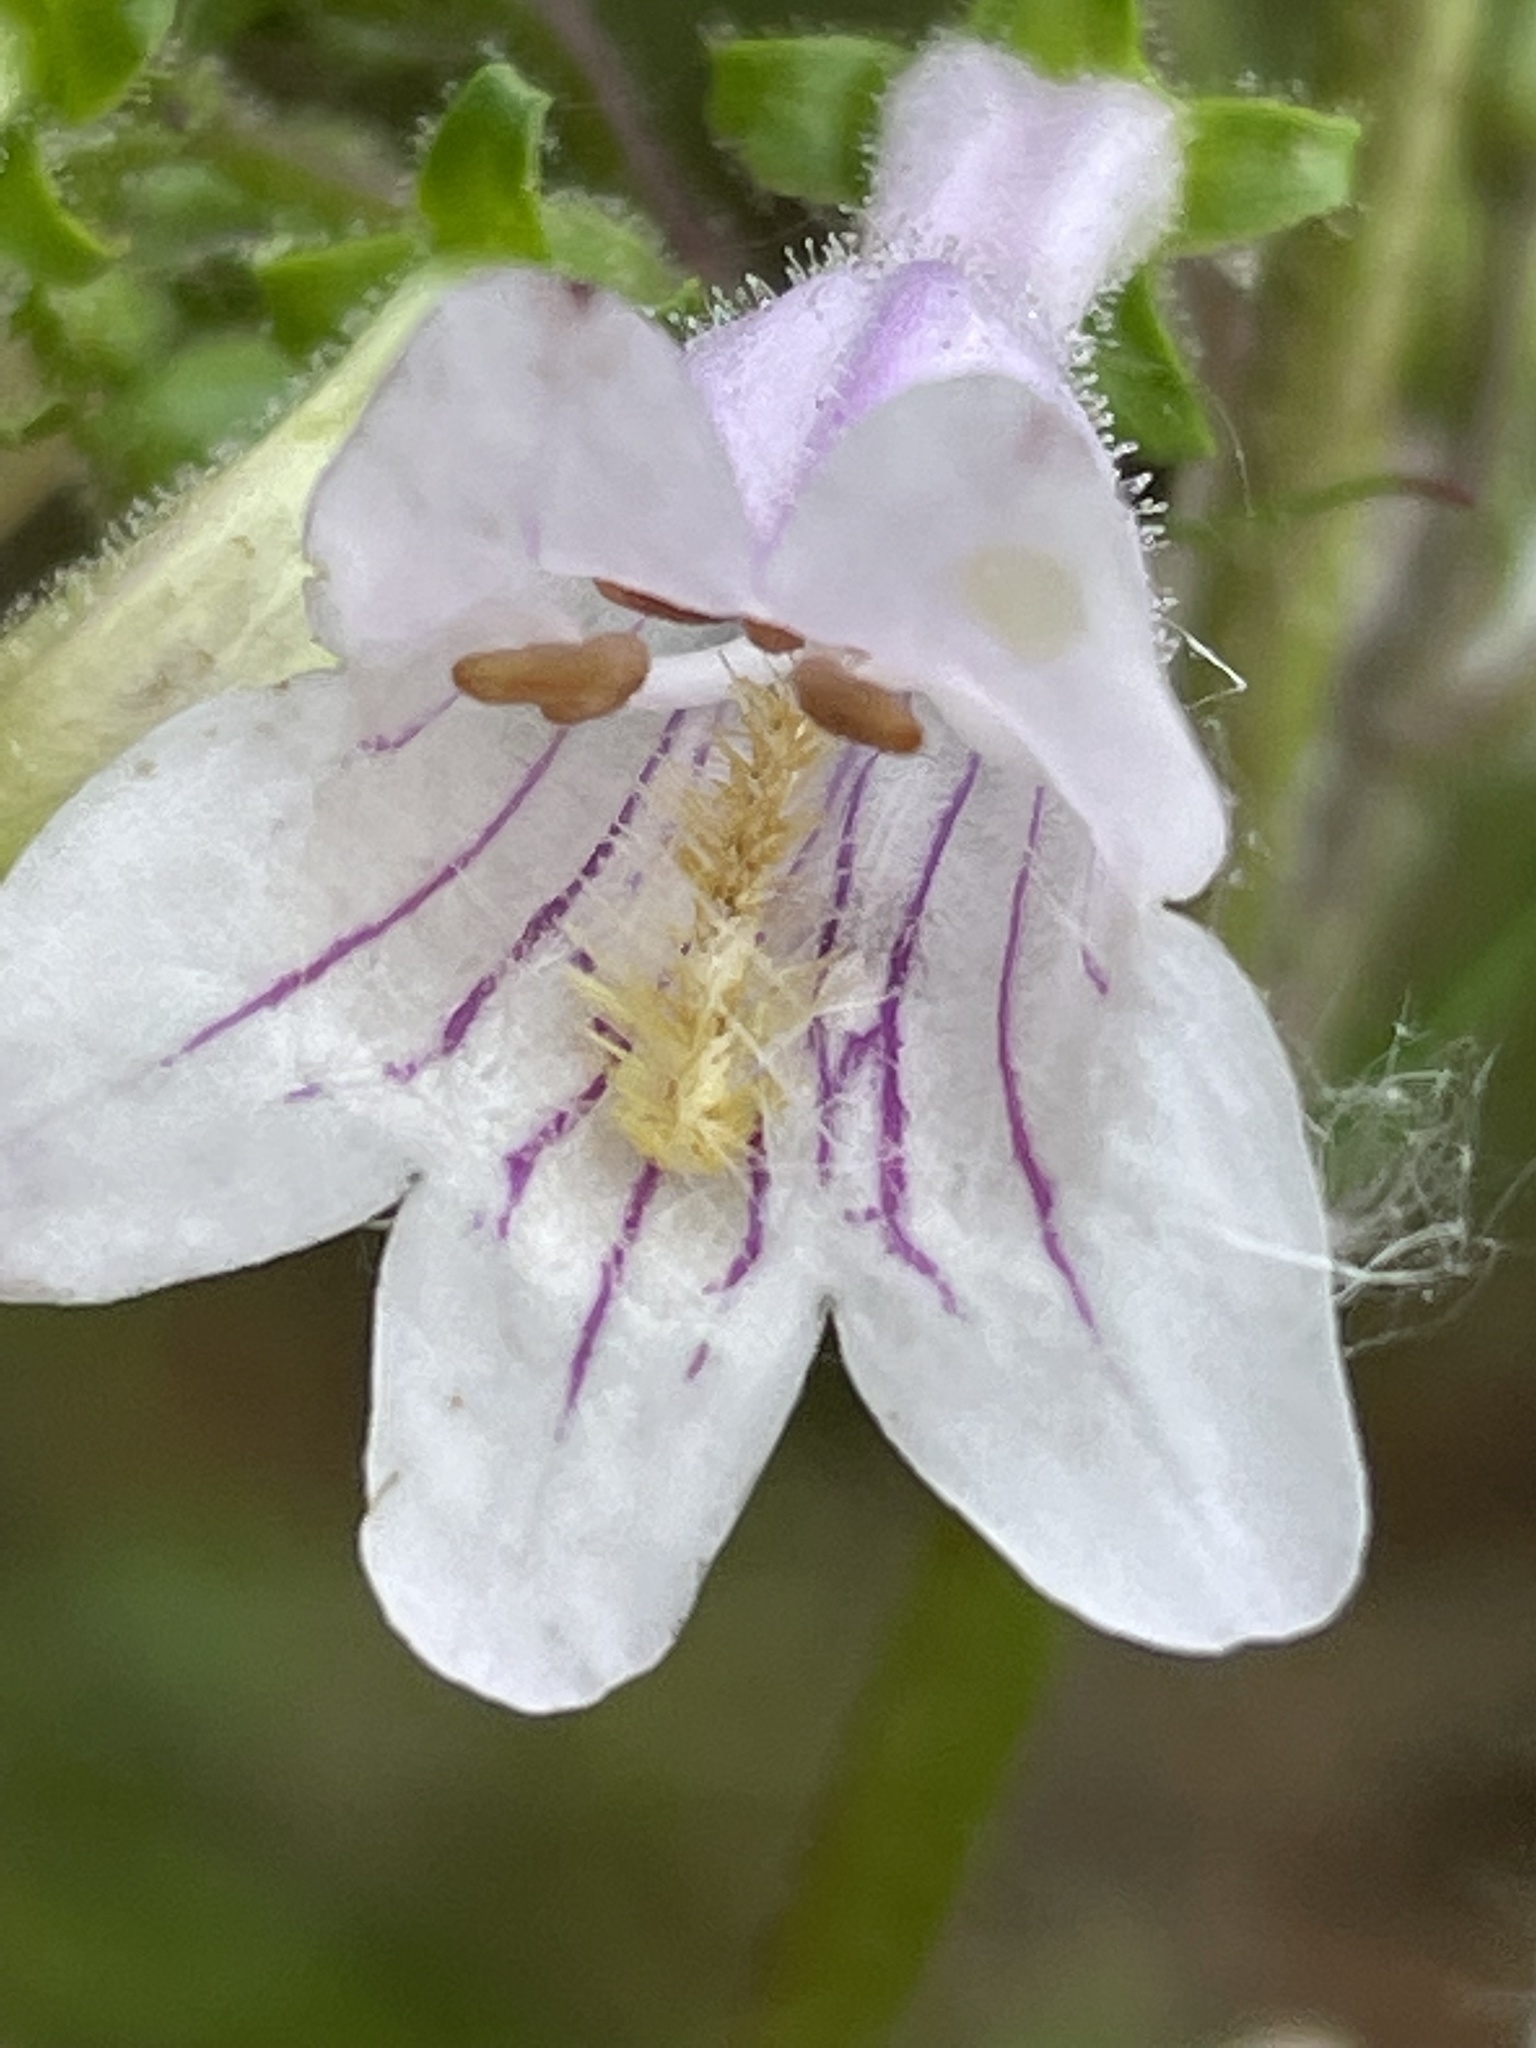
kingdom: Plantae
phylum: Tracheophyta
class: Magnoliopsida
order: Lamiales
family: Plantaginaceae
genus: Penstemon
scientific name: Penstemon laevigatus
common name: Eastern beardtongue
